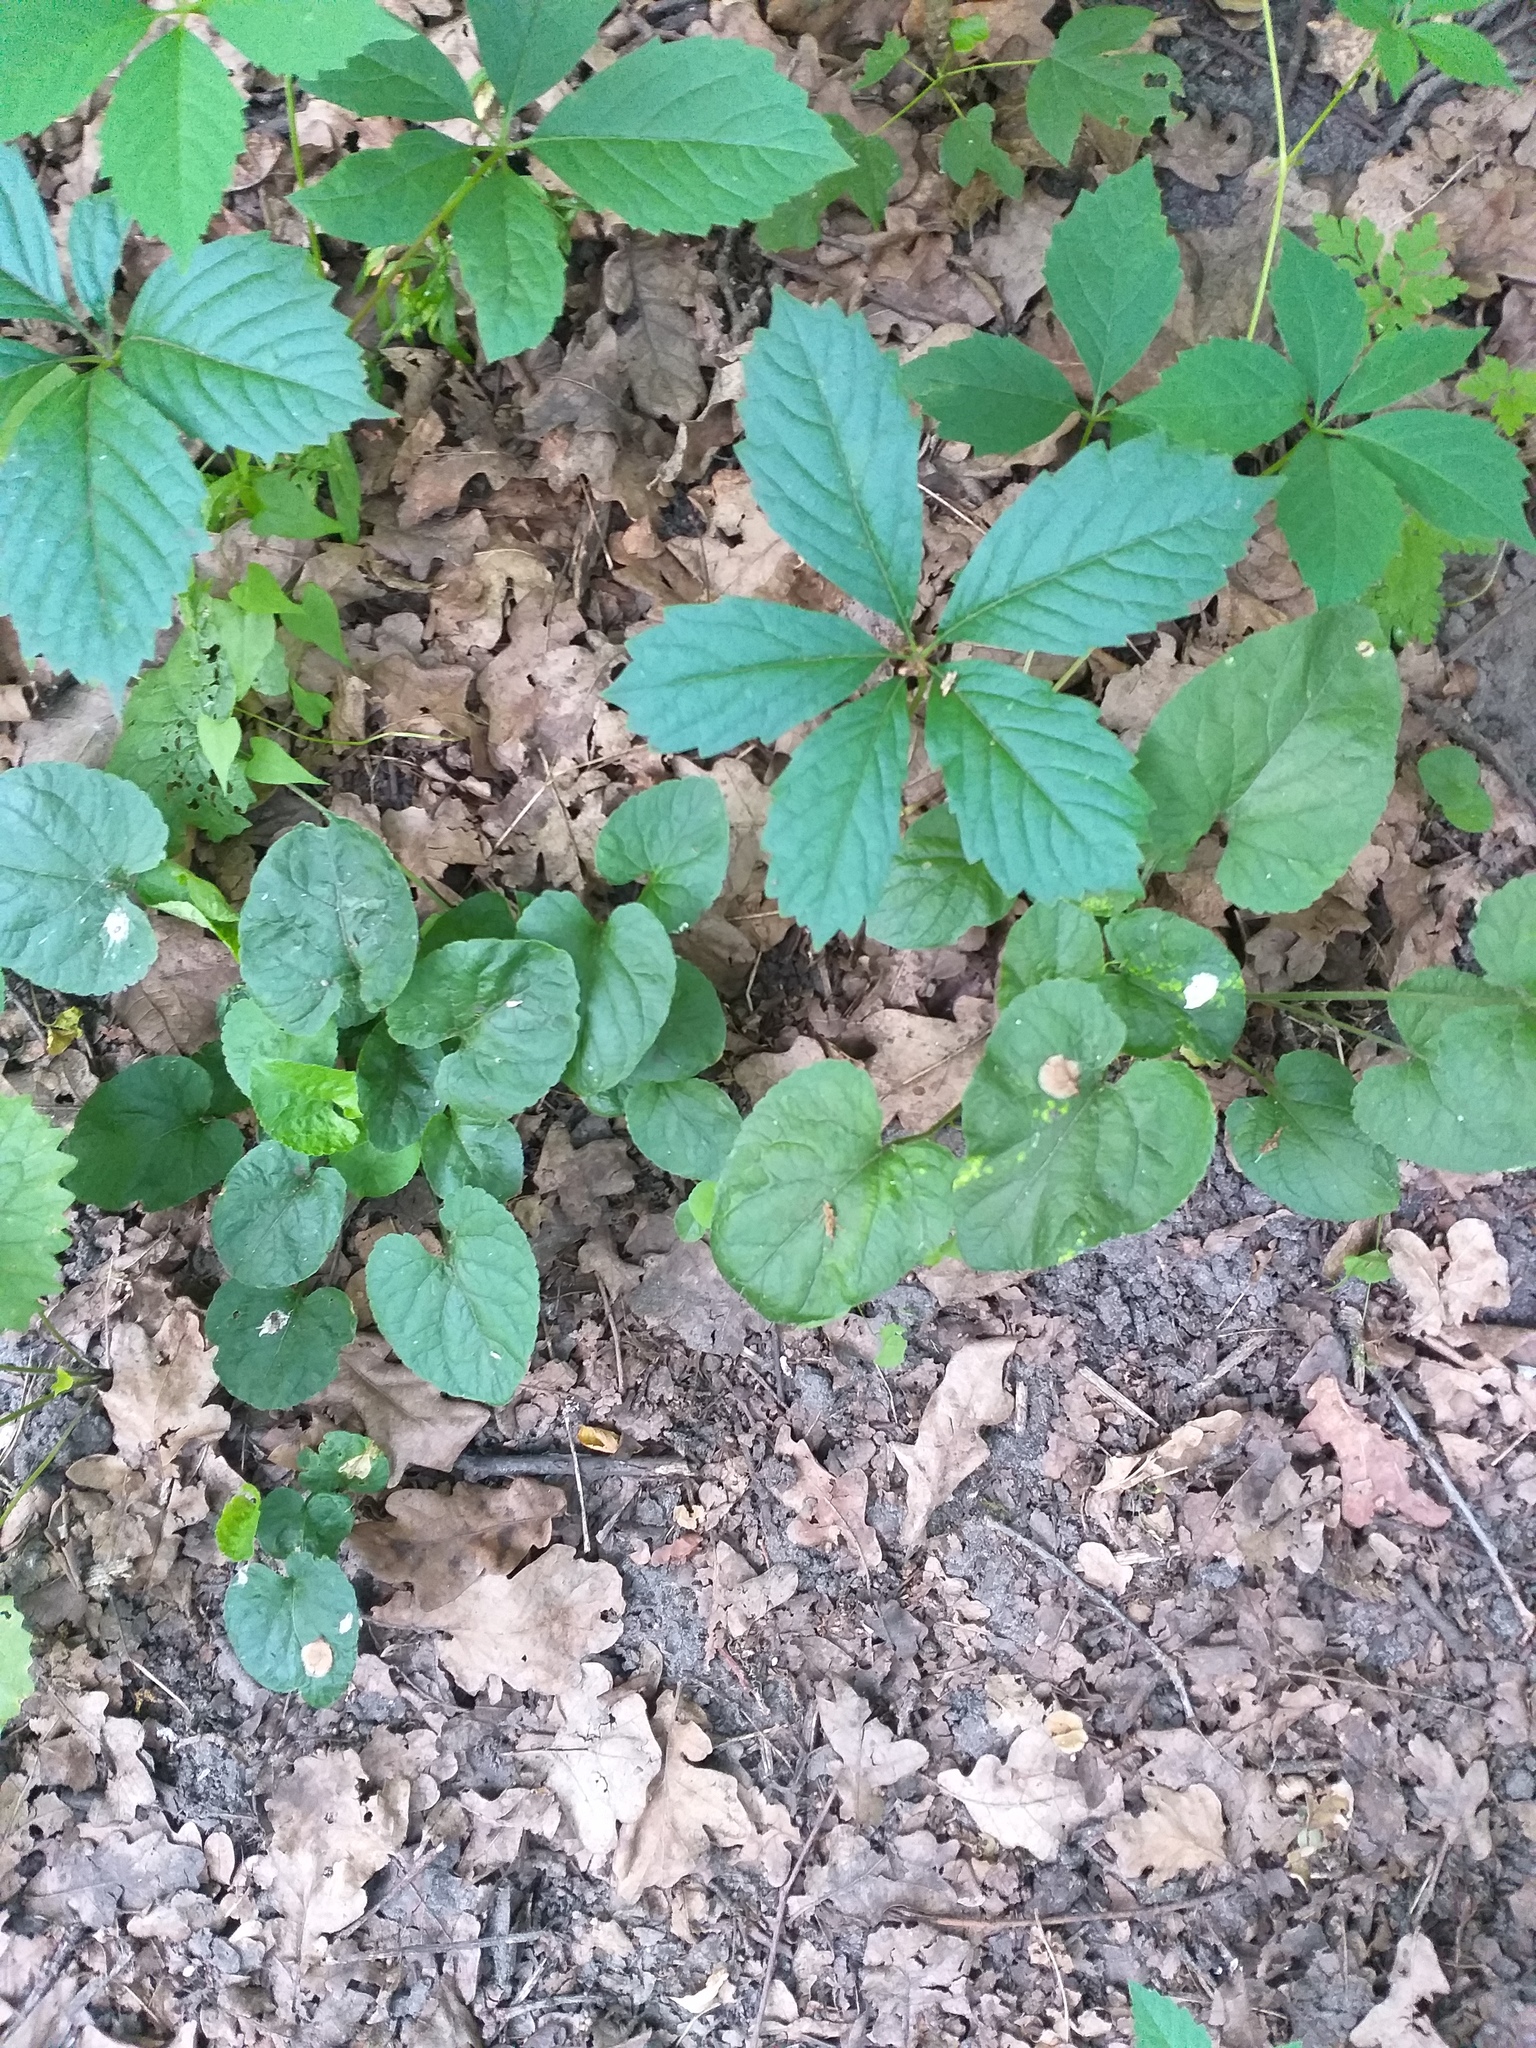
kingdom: Plantae
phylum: Tracheophyta
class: Magnoliopsida
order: Malpighiales
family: Violaceae
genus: Viola
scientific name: Viola odorata
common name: Sweet violet
